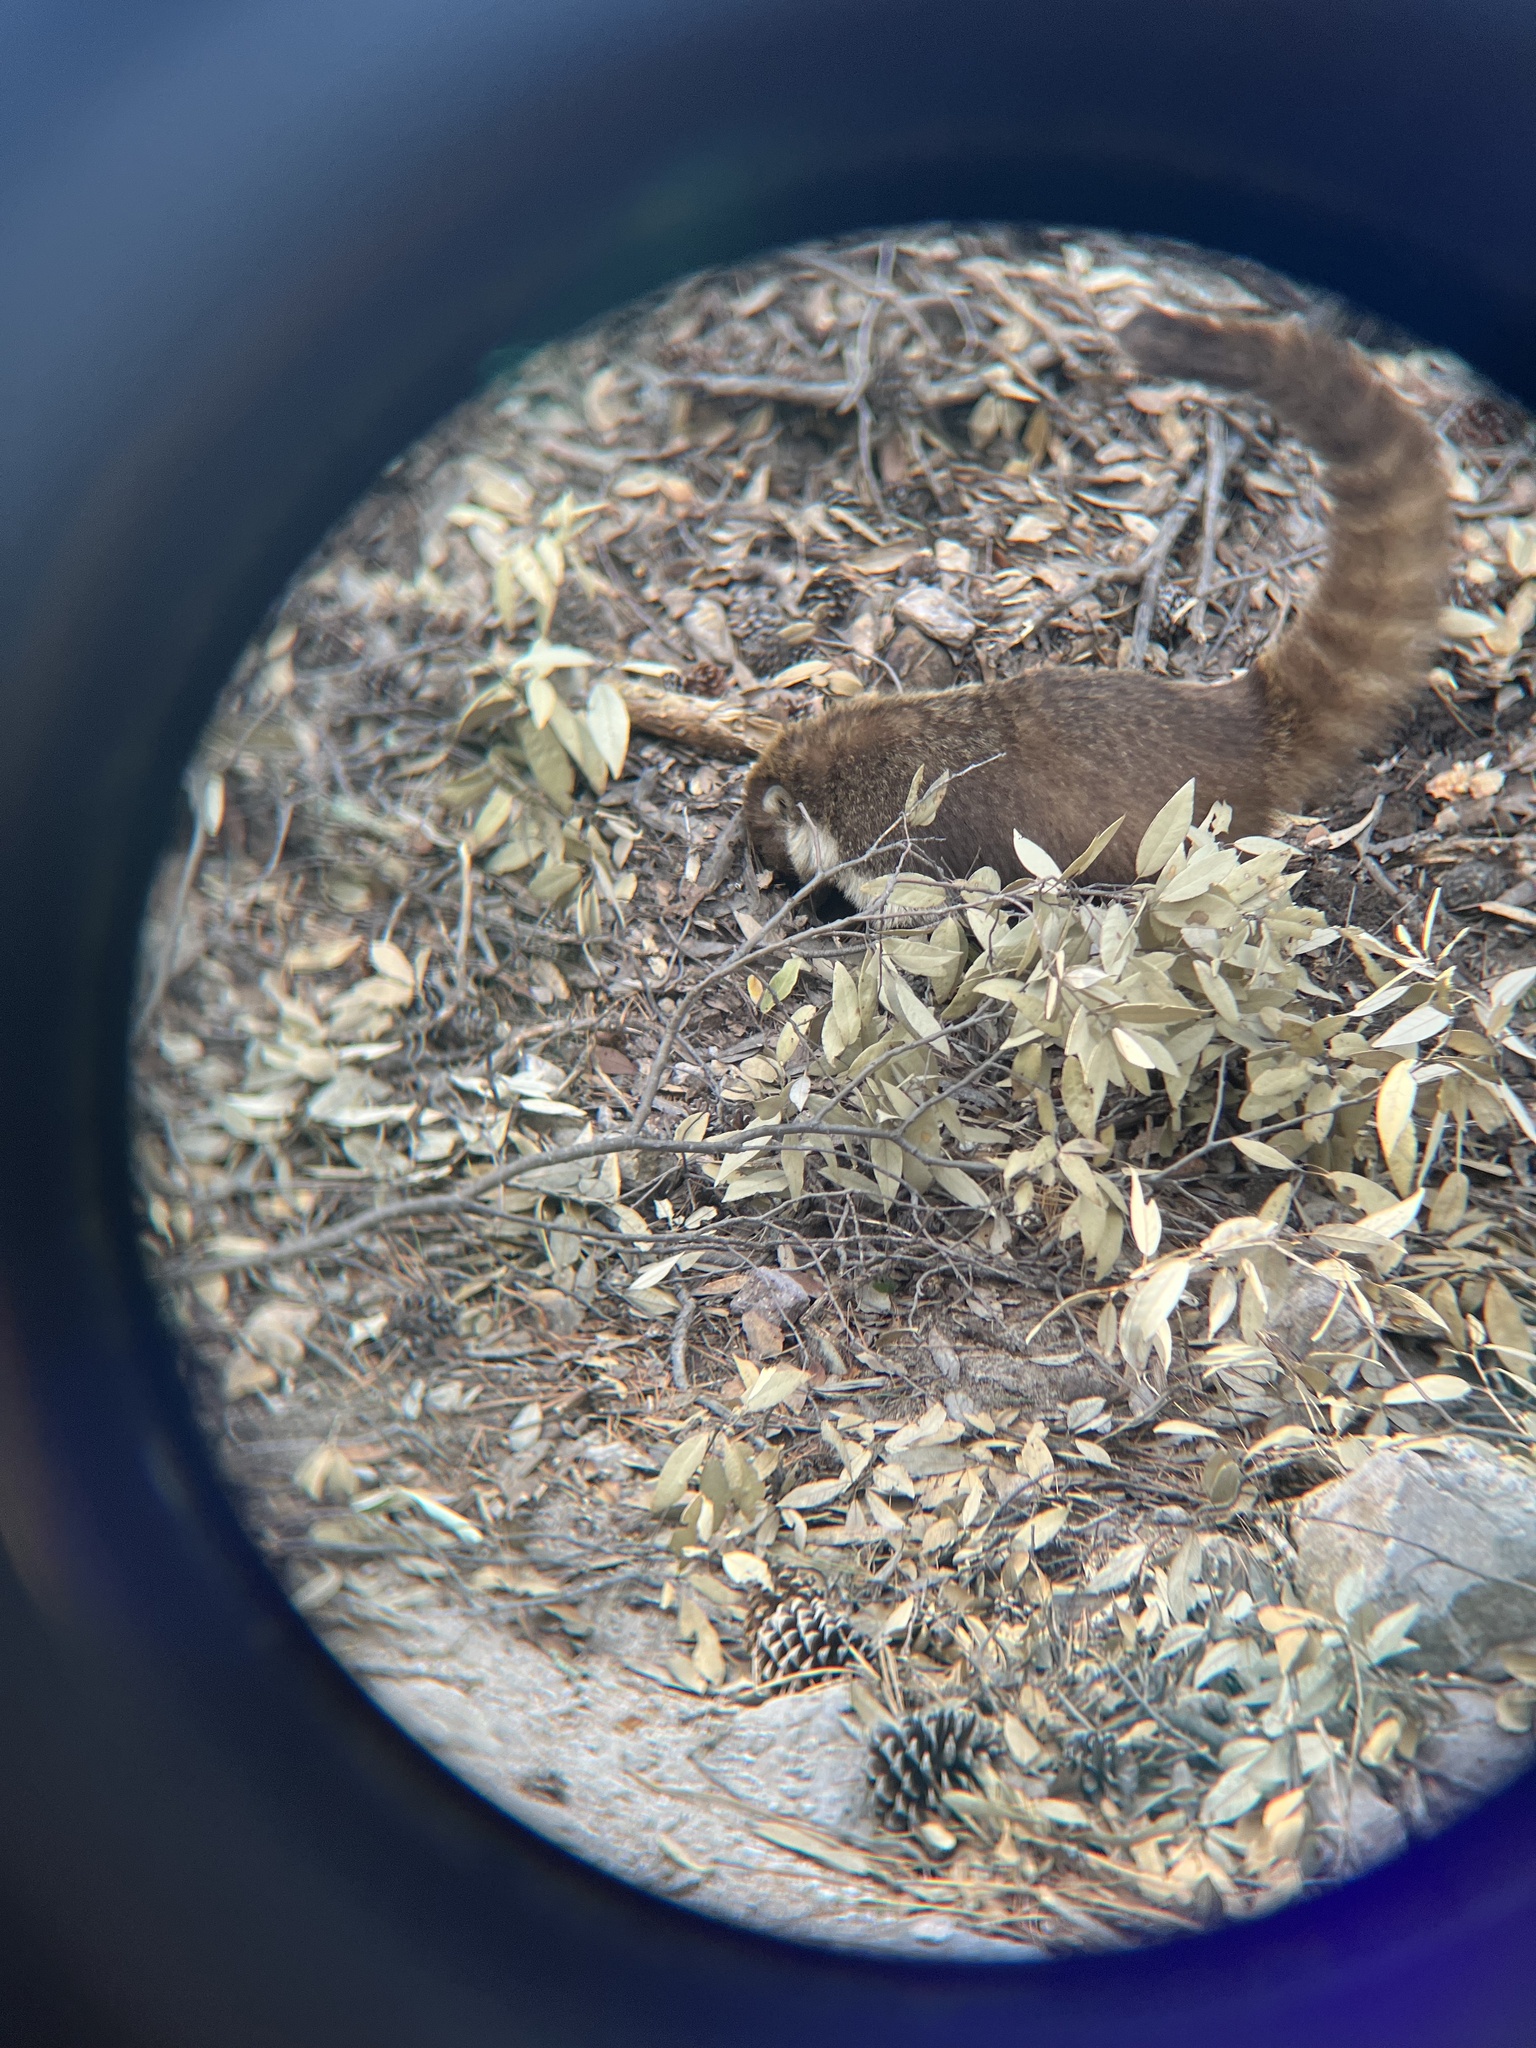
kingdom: Animalia
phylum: Chordata
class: Mammalia
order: Carnivora
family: Procyonidae
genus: Nasua
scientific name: Nasua narica
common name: White-nosed coati
